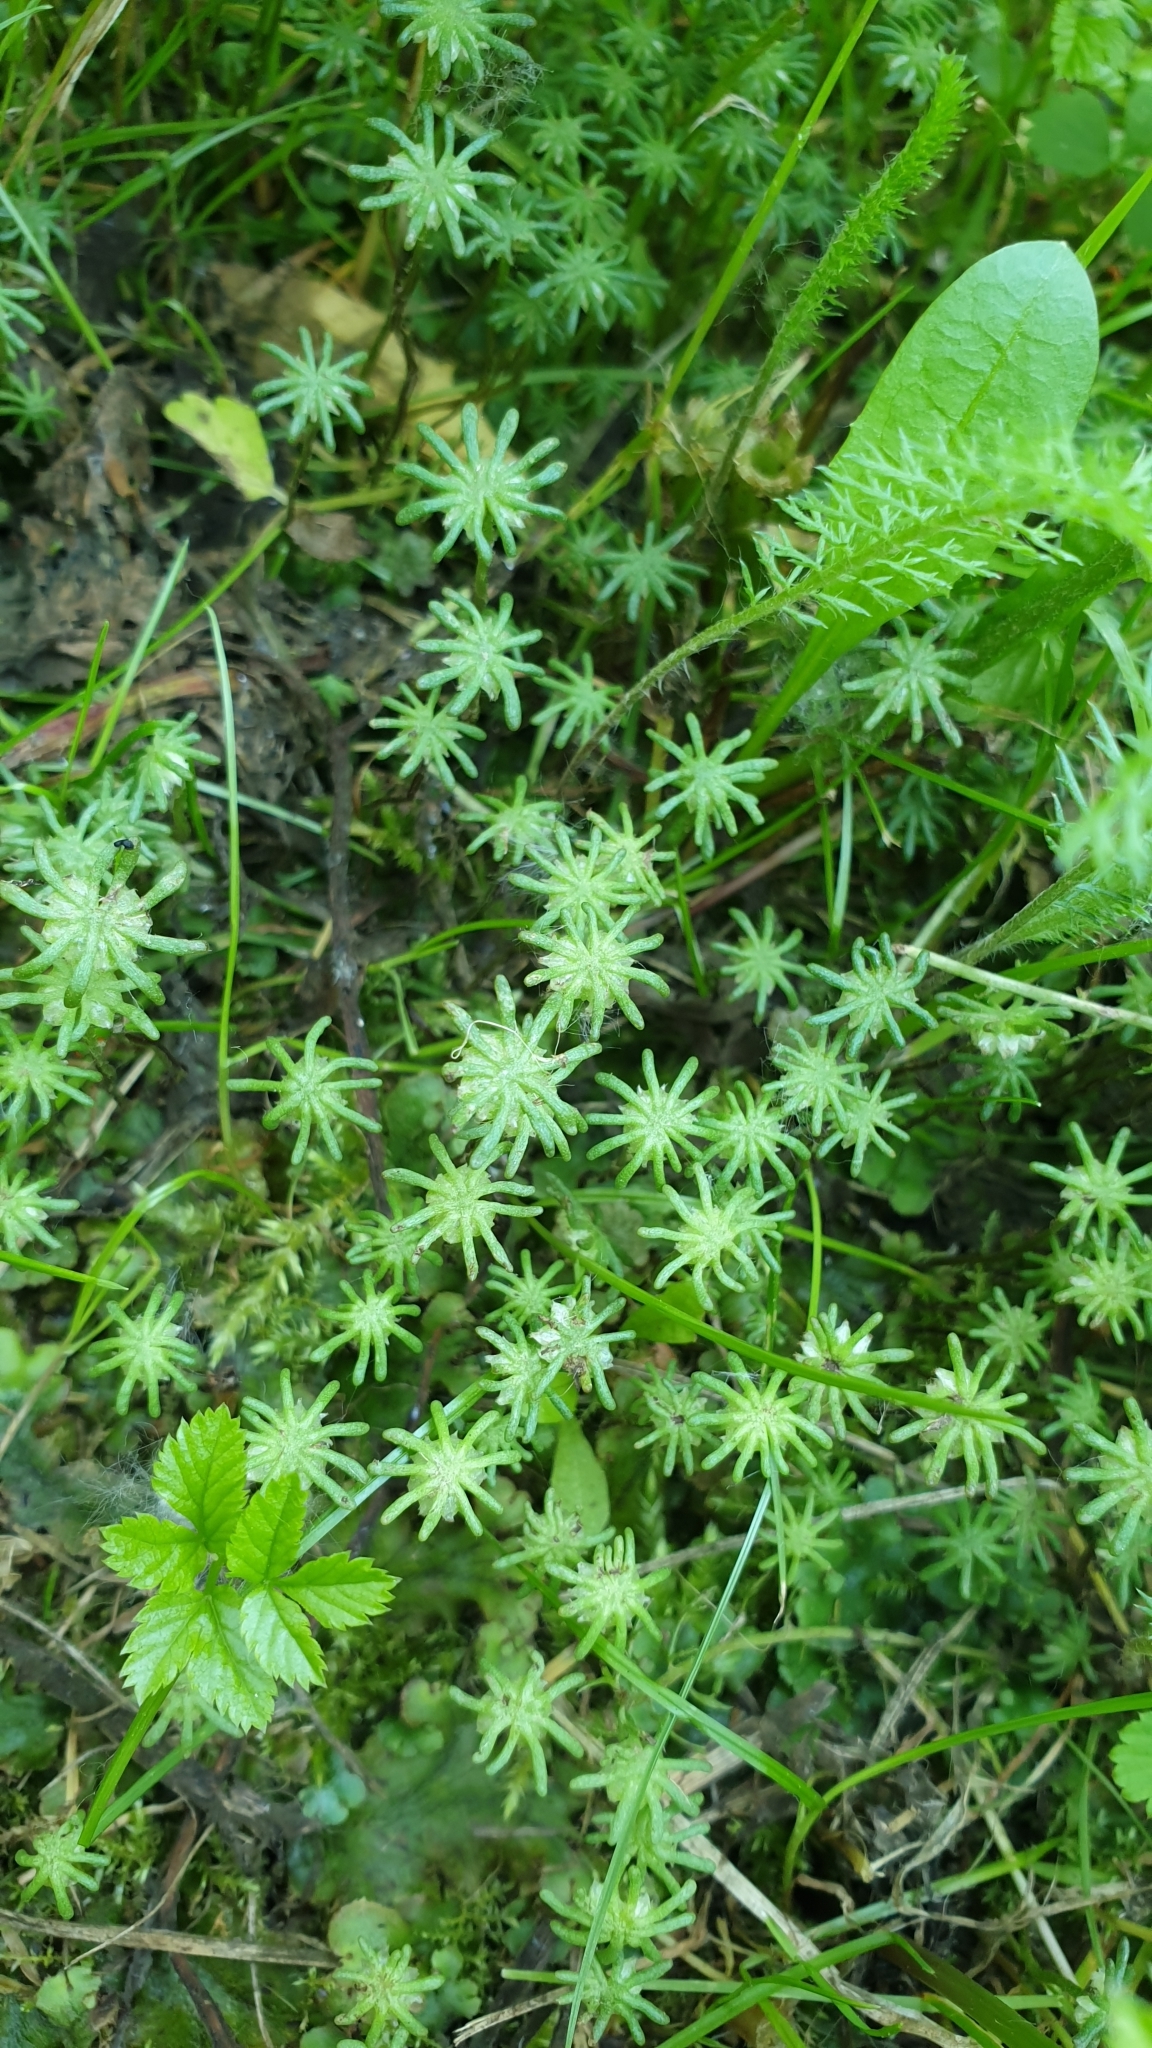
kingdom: Plantae
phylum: Marchantiophyta
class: Marchantiopsida
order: Marchantiales
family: Marchantiaceae
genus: Marchantia
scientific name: Marchantia polymorpha
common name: Common liverwort
